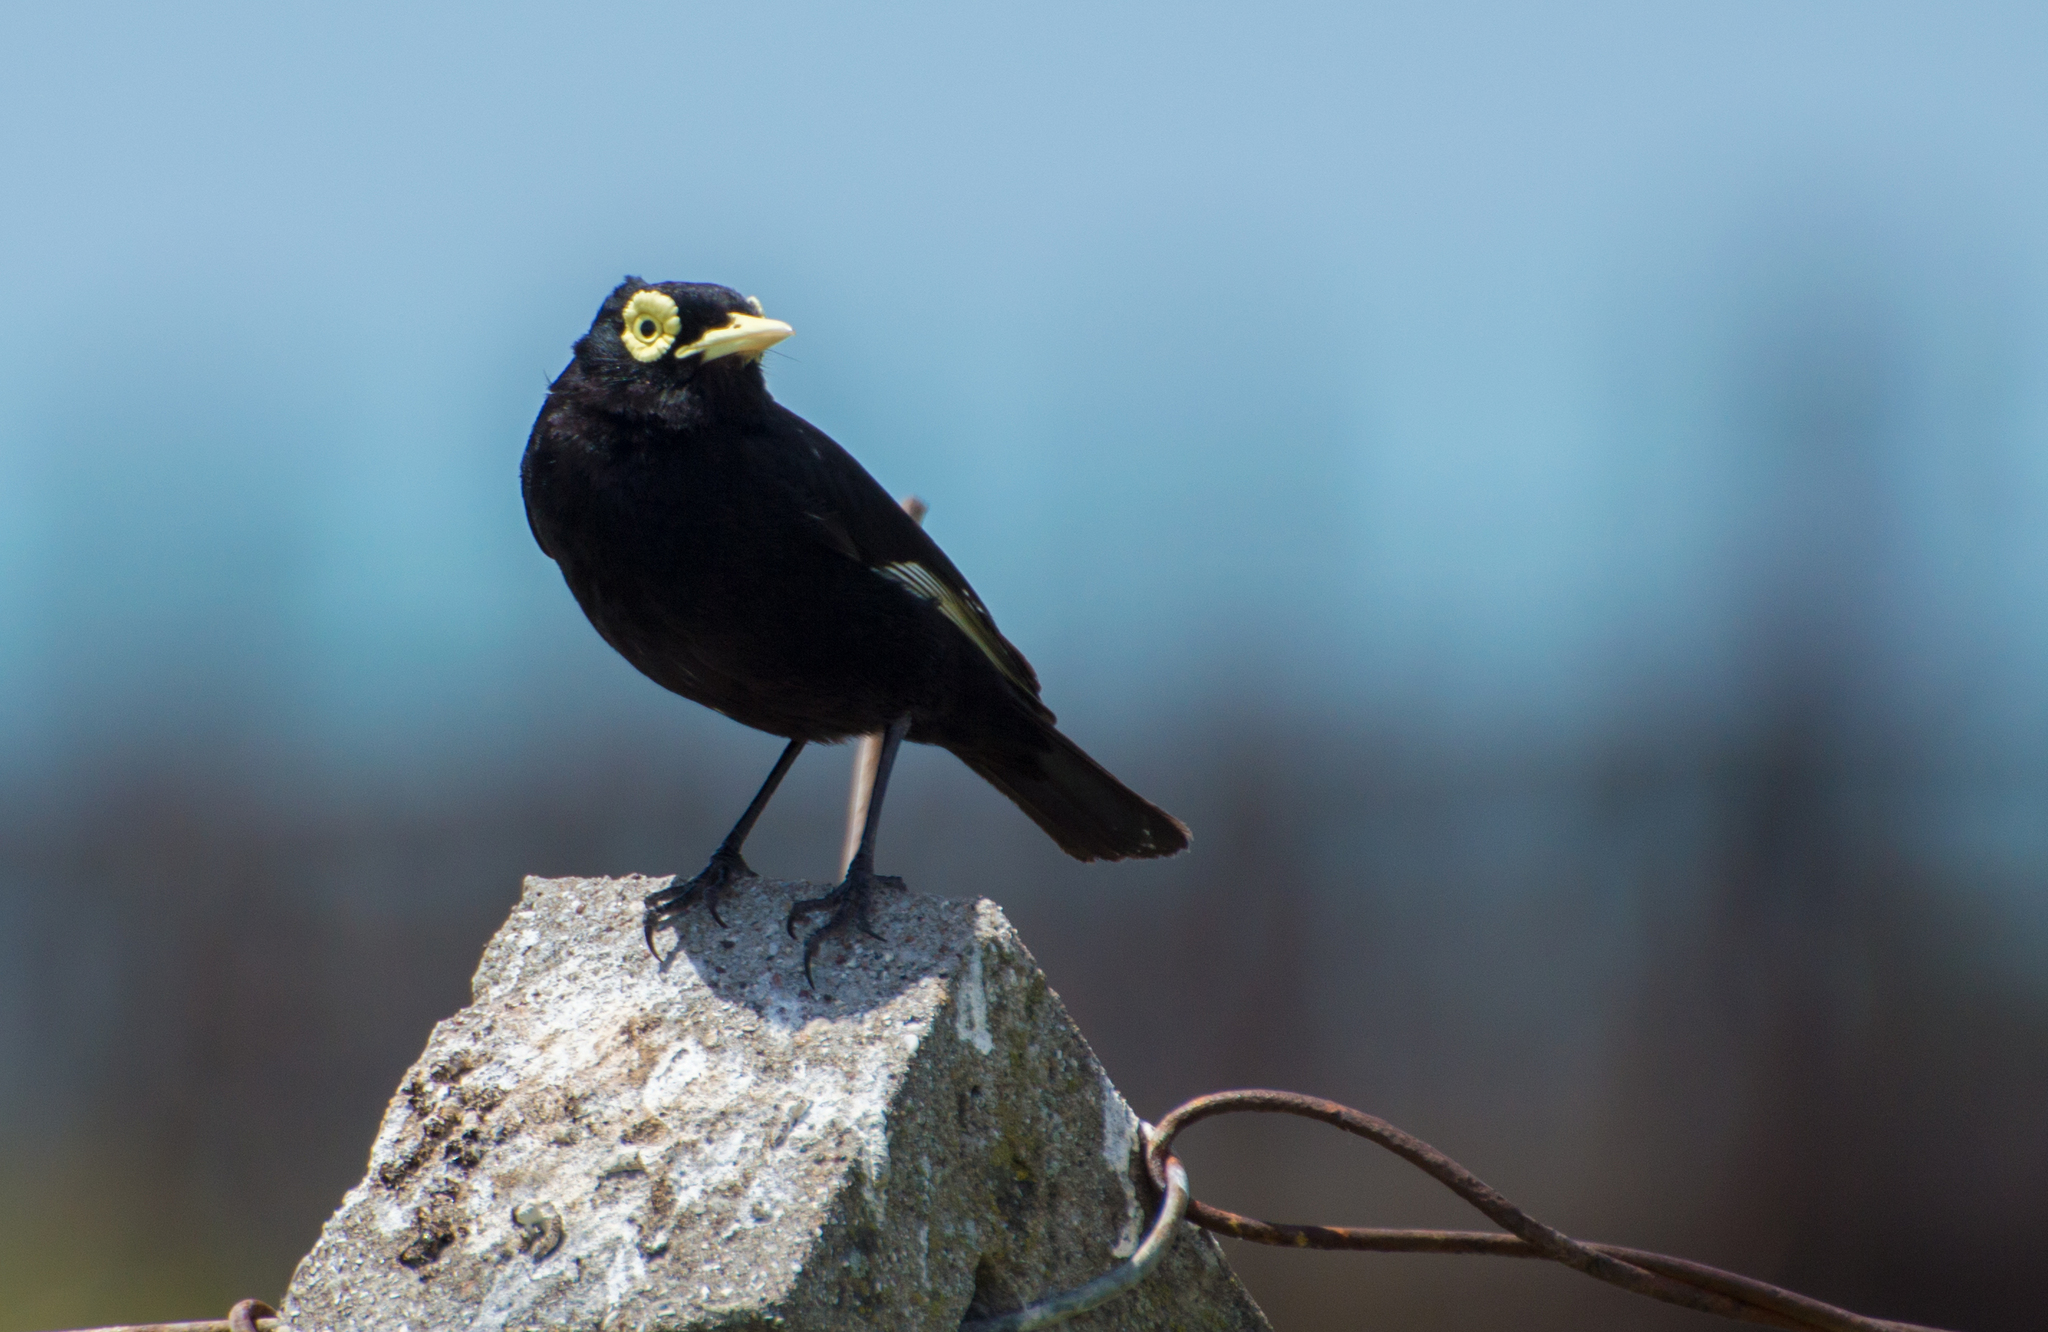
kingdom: Animalia
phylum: Chordata
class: Aves
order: Passeriformes
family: Tyrannidae
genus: Hymenops
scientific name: Hymenops perspicillatus
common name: Spectacled tyrant
